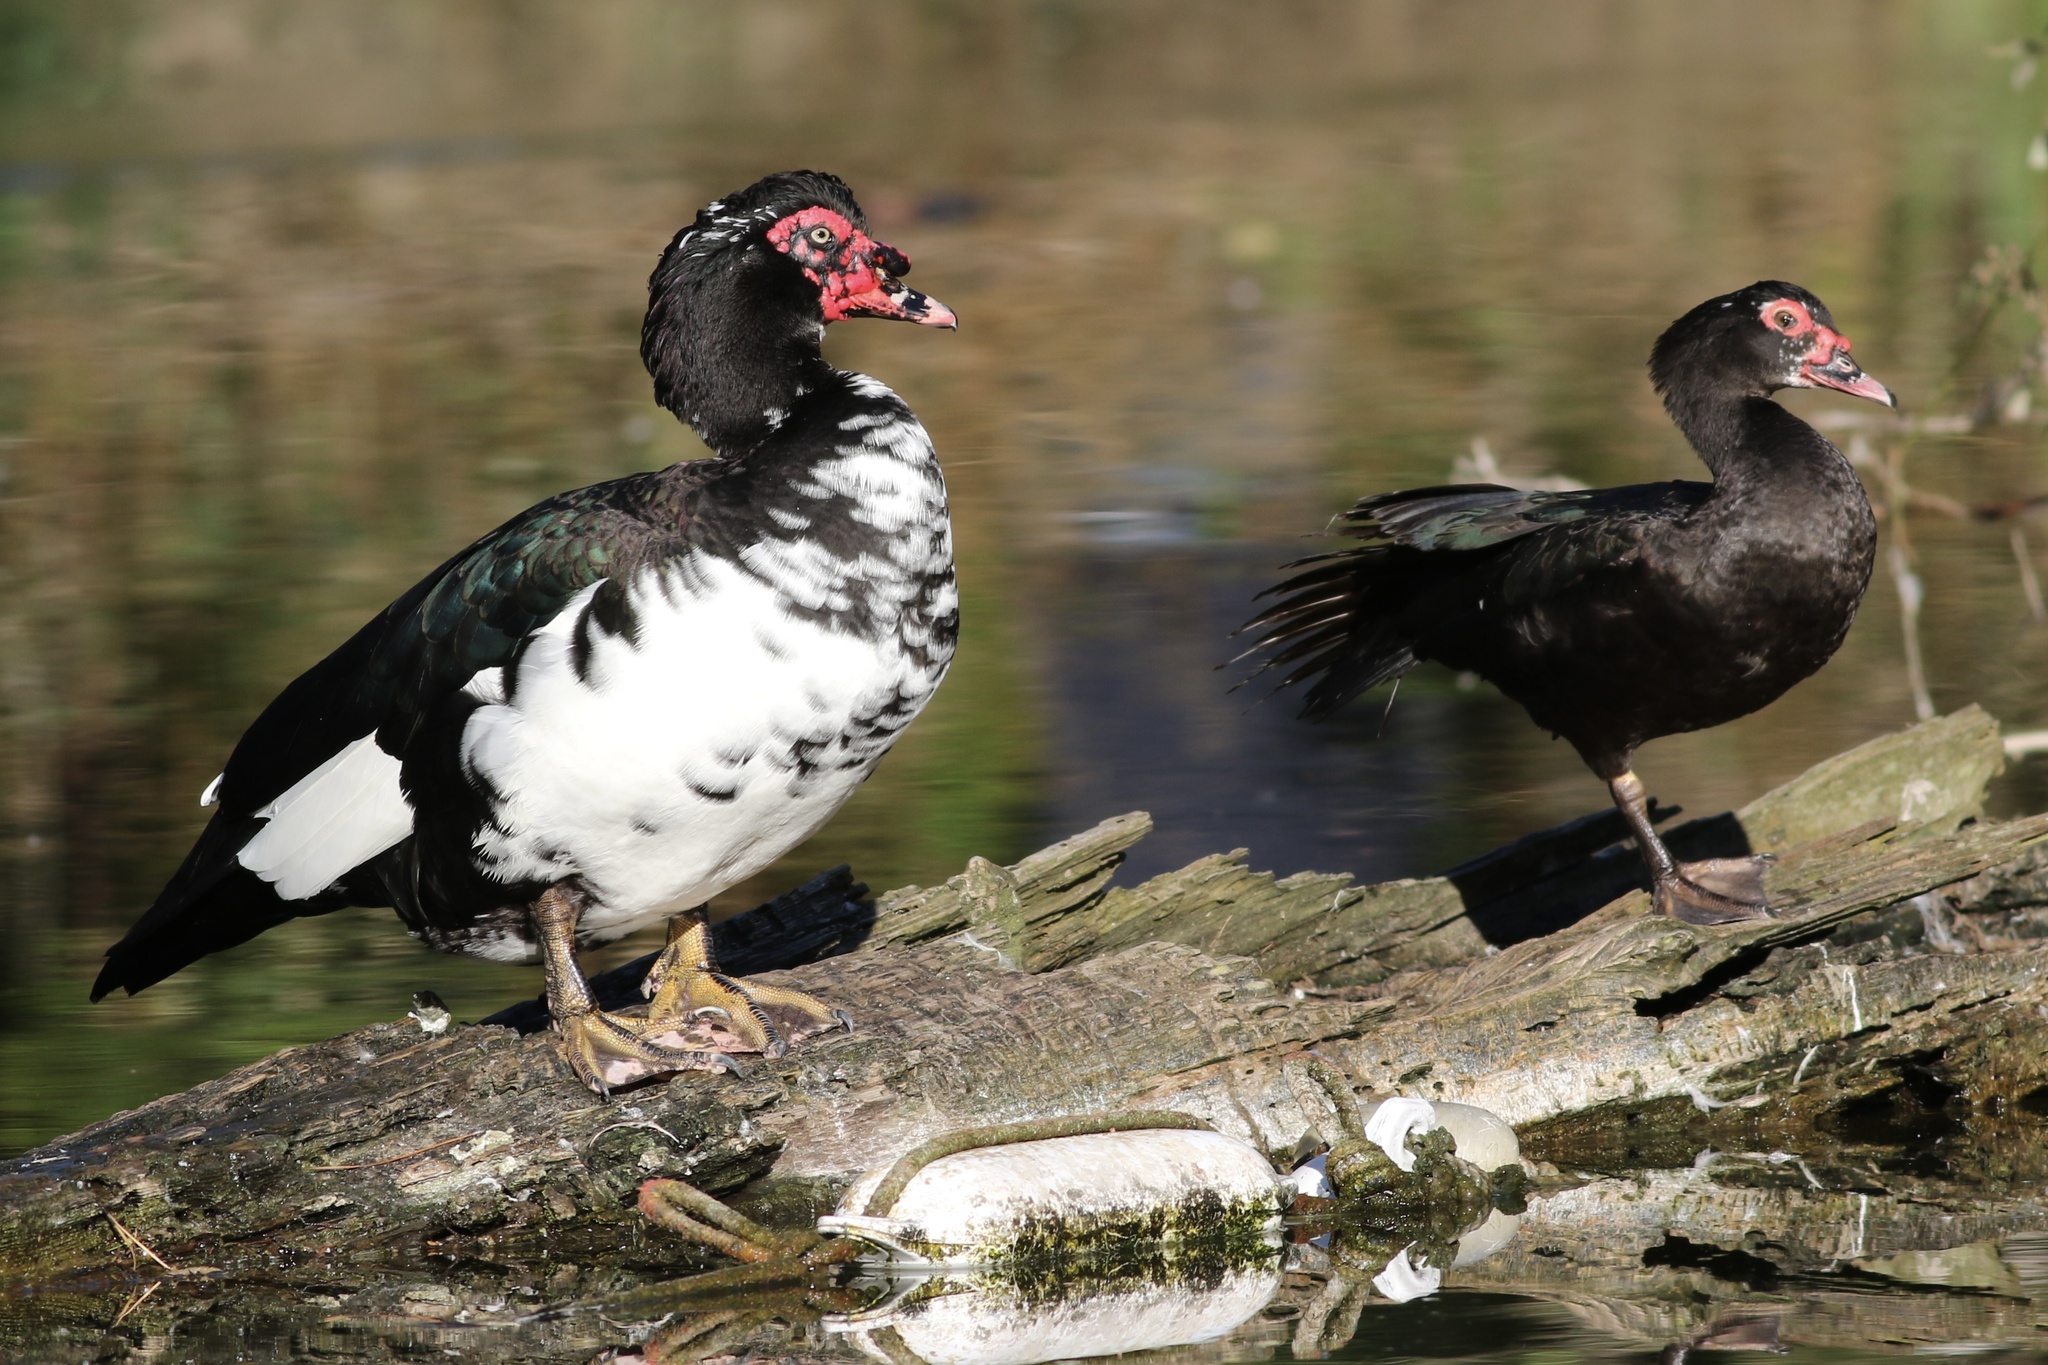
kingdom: Animalia
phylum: Chordata
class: Aves
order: Anseriformes
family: Anatidae
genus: Cairina
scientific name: Cairina moschata
